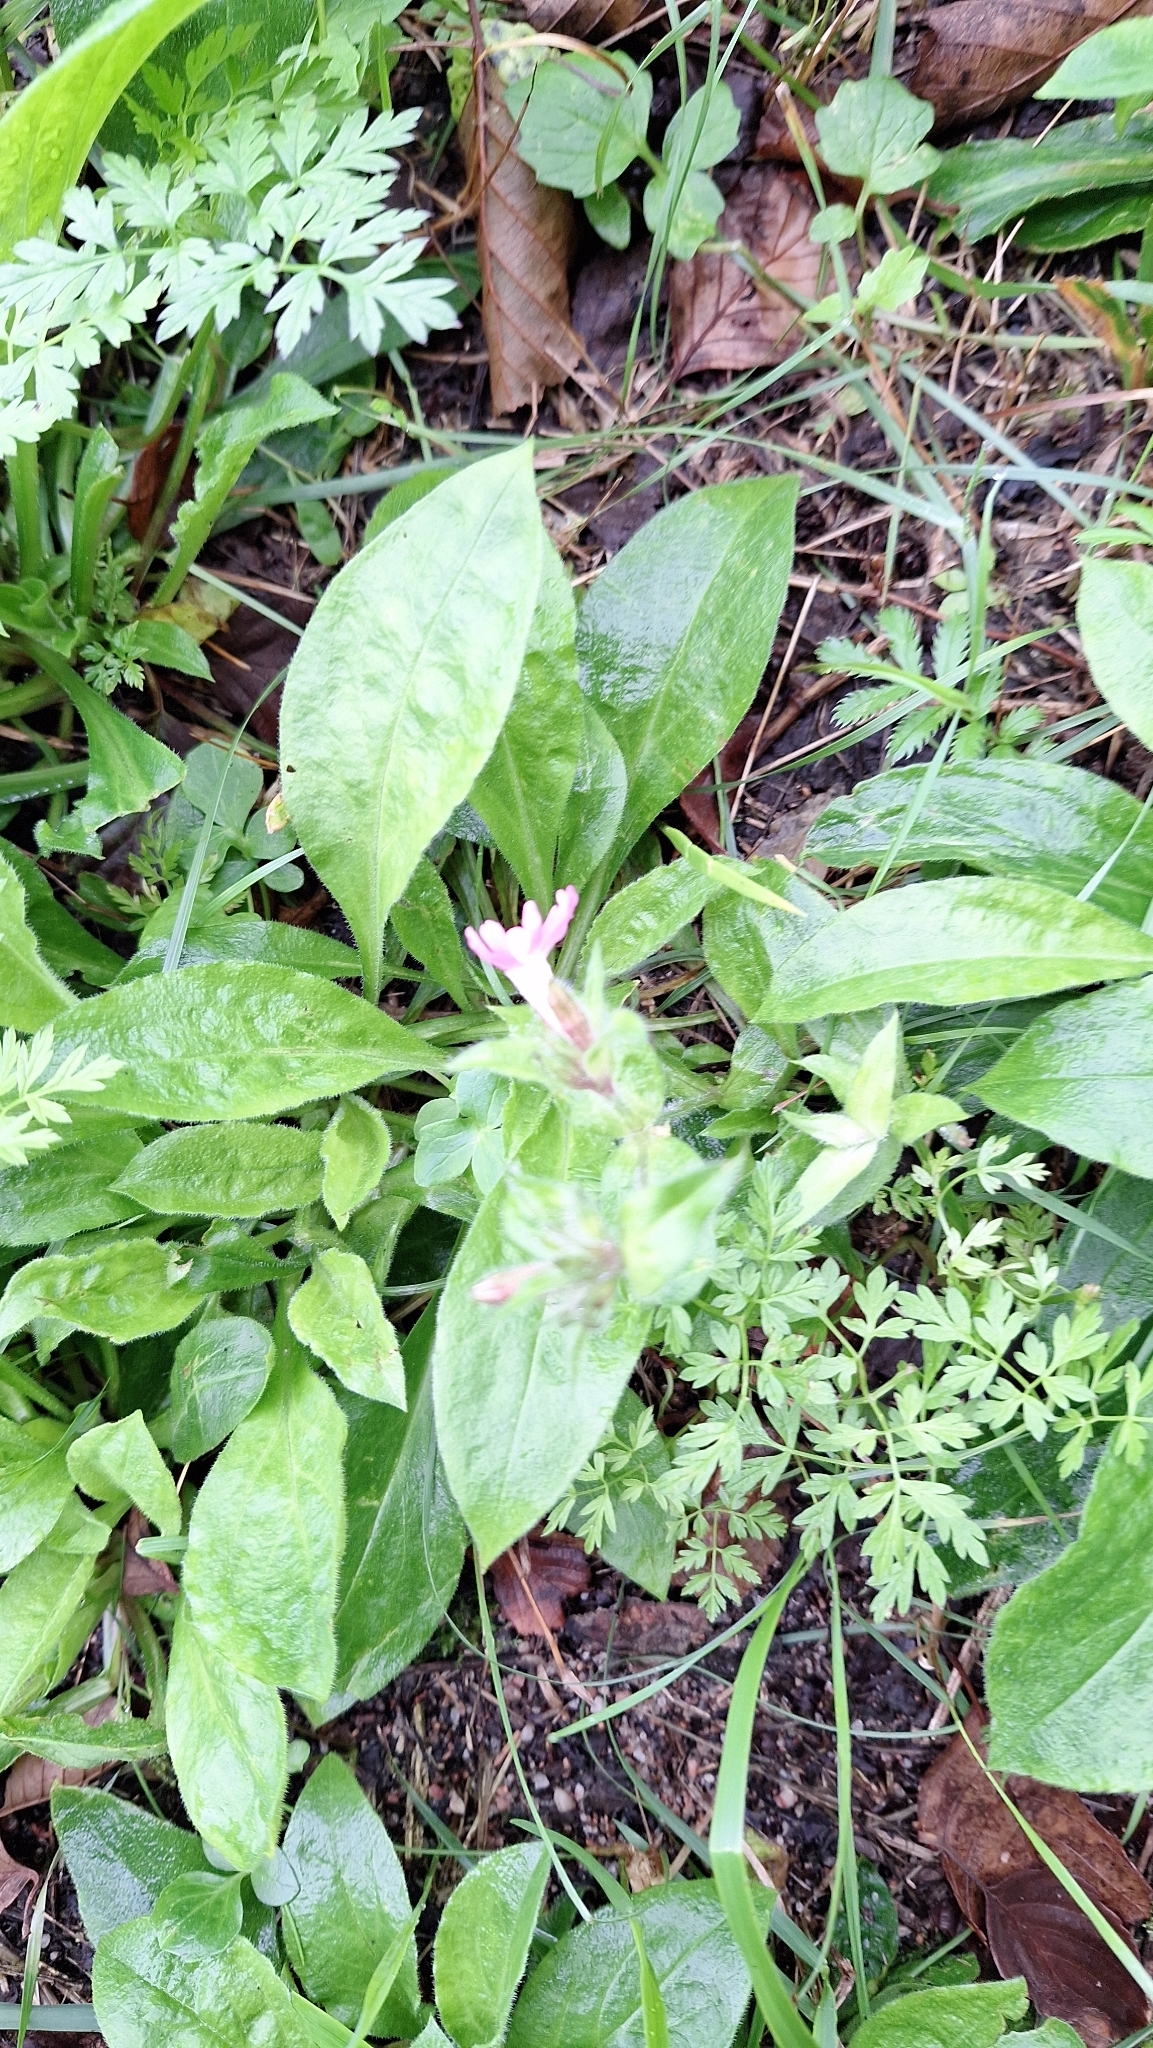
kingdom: Plantae
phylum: Tracheophyta
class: Magnoliopsida
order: Caryophyllales
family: Caryophyllaceae
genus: Silene
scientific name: Silene dioica
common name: Red campion
